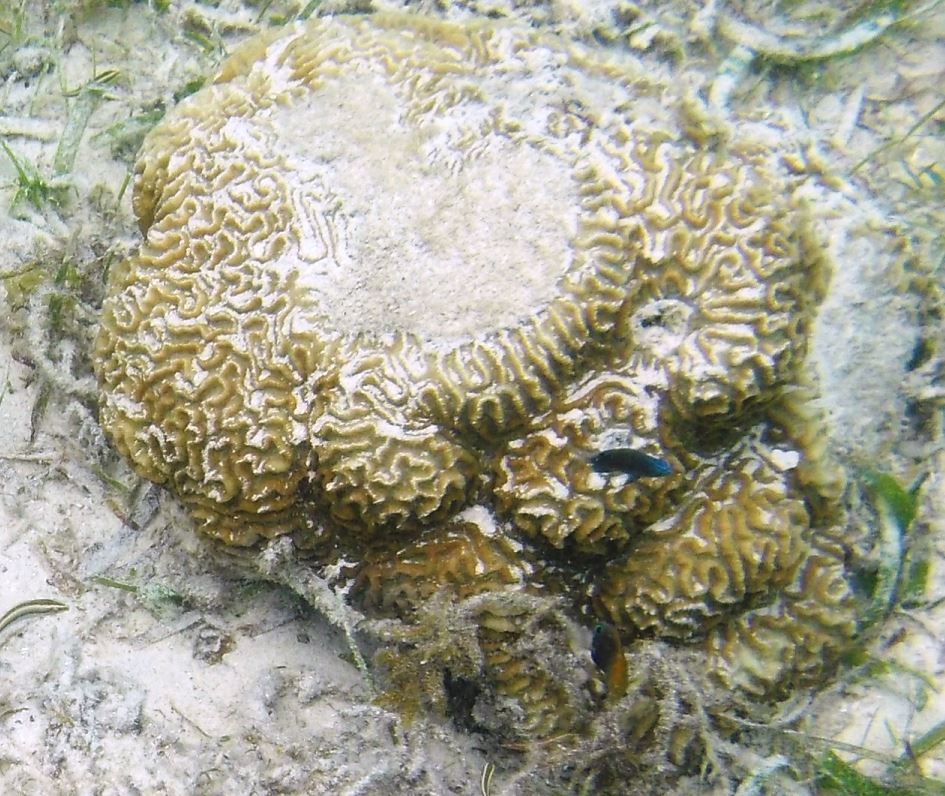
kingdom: Animalia
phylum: Cnidaria
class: Anthozoa
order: Scleractinia
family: Merulinidae
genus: Platygyra
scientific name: Platygyra daedalea
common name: Lesser valley coral
